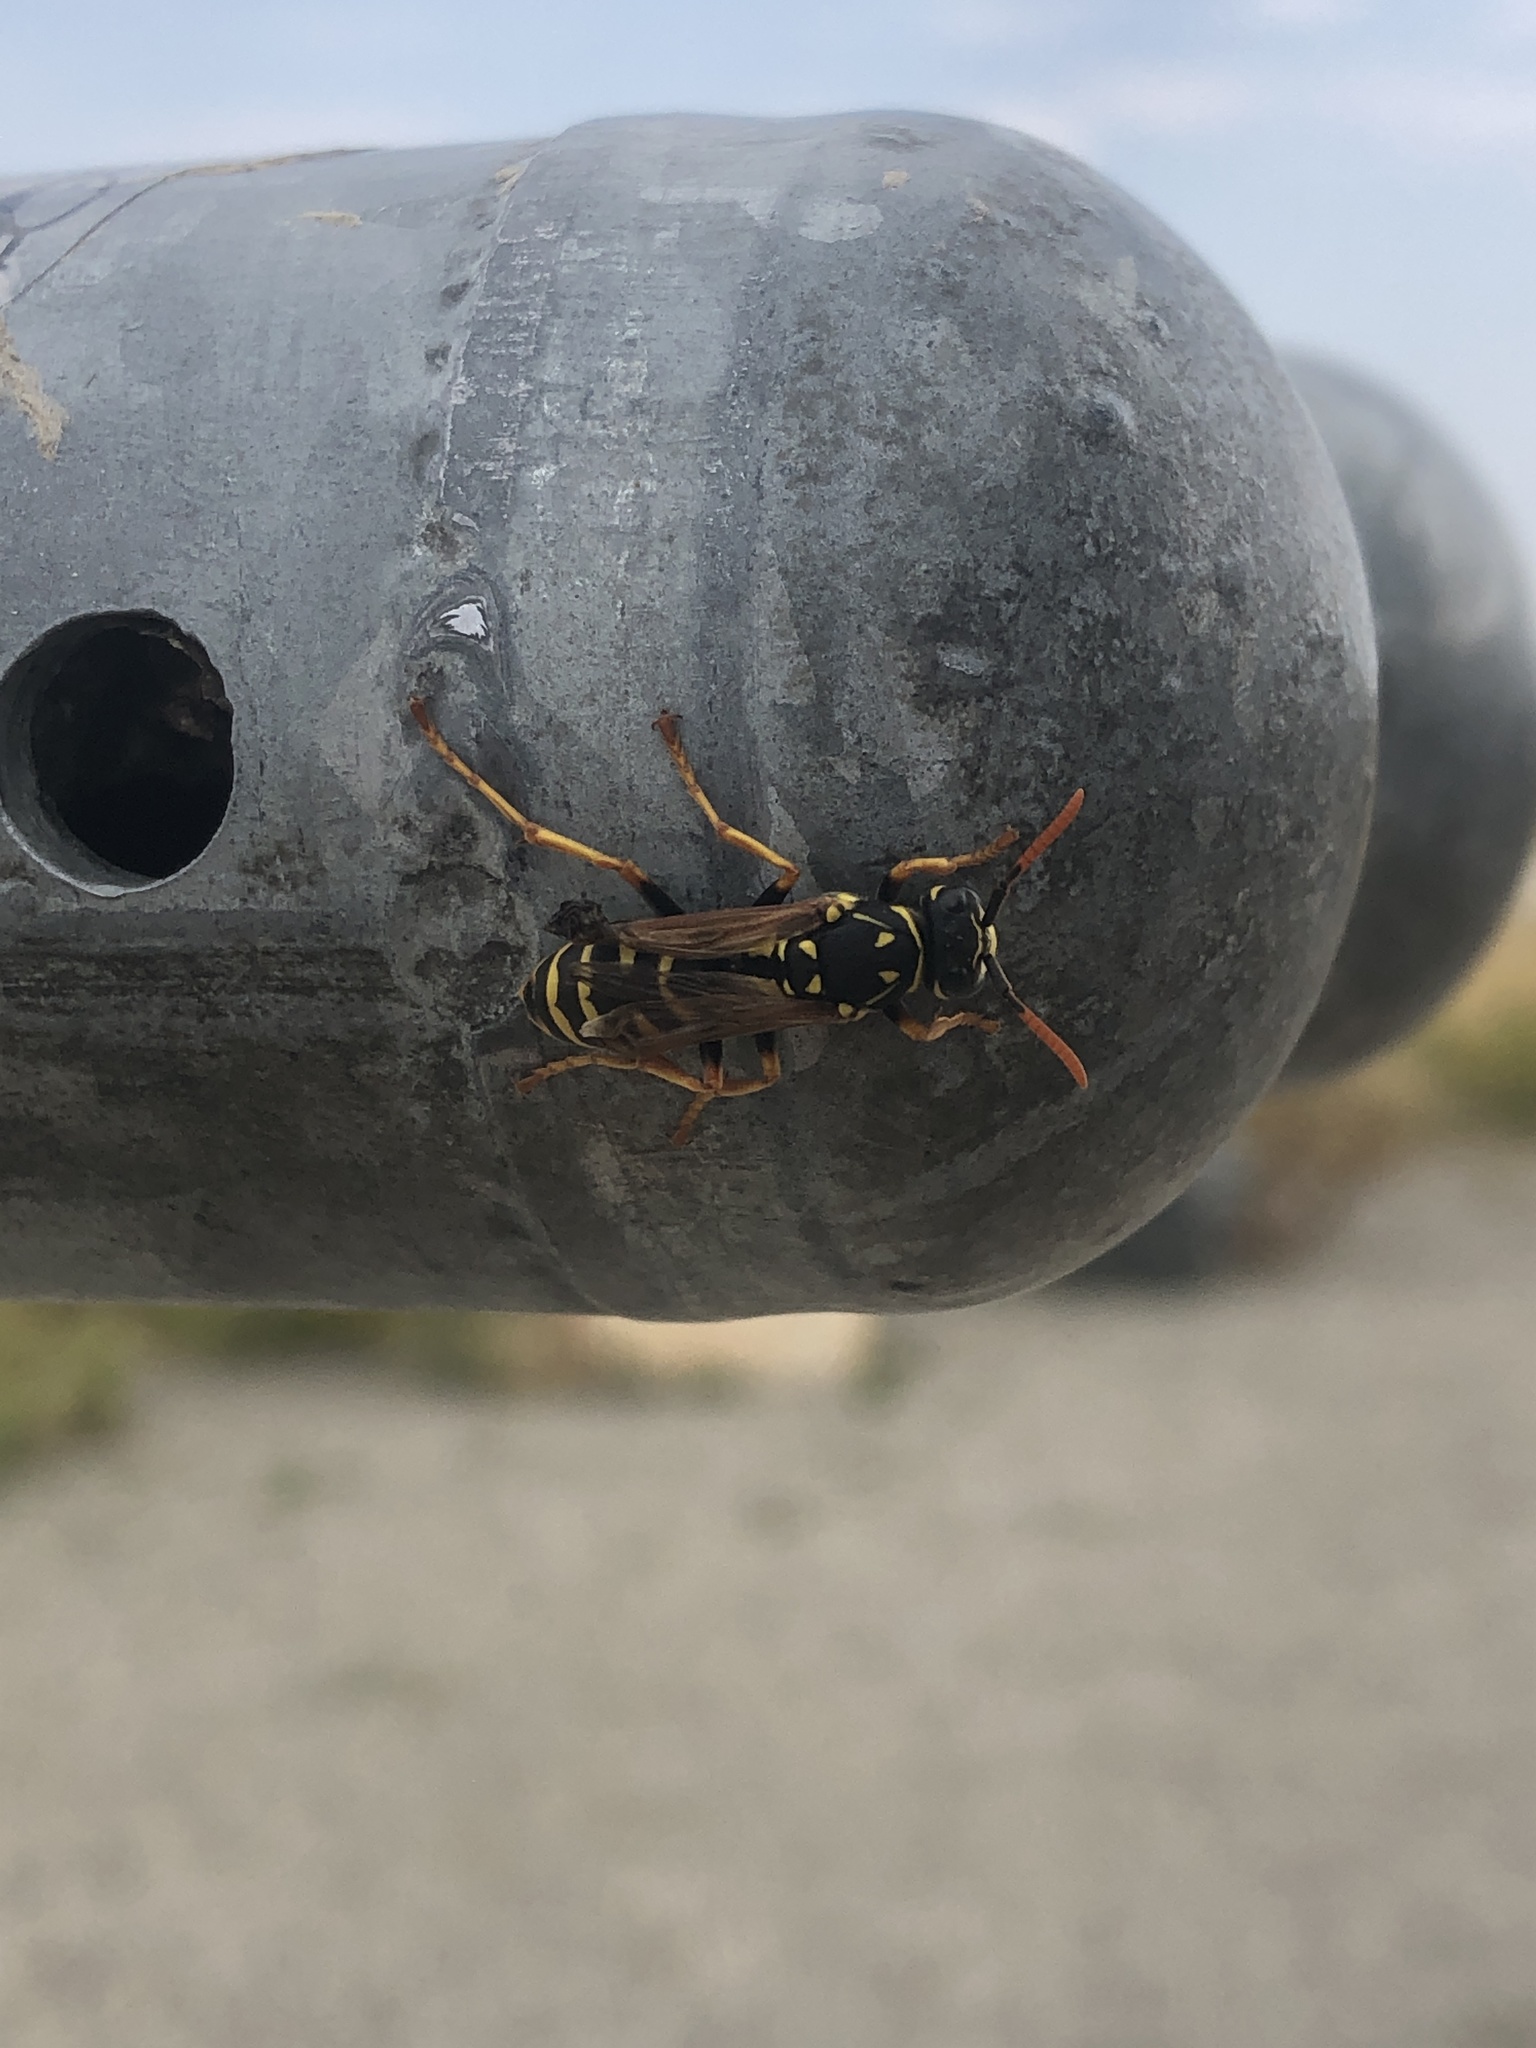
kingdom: Animalia
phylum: Arthropoda
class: Insecta
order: Hymenoptera
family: Eumenidae
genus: Polistes
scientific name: Polistes dominula
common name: Paper wasp
